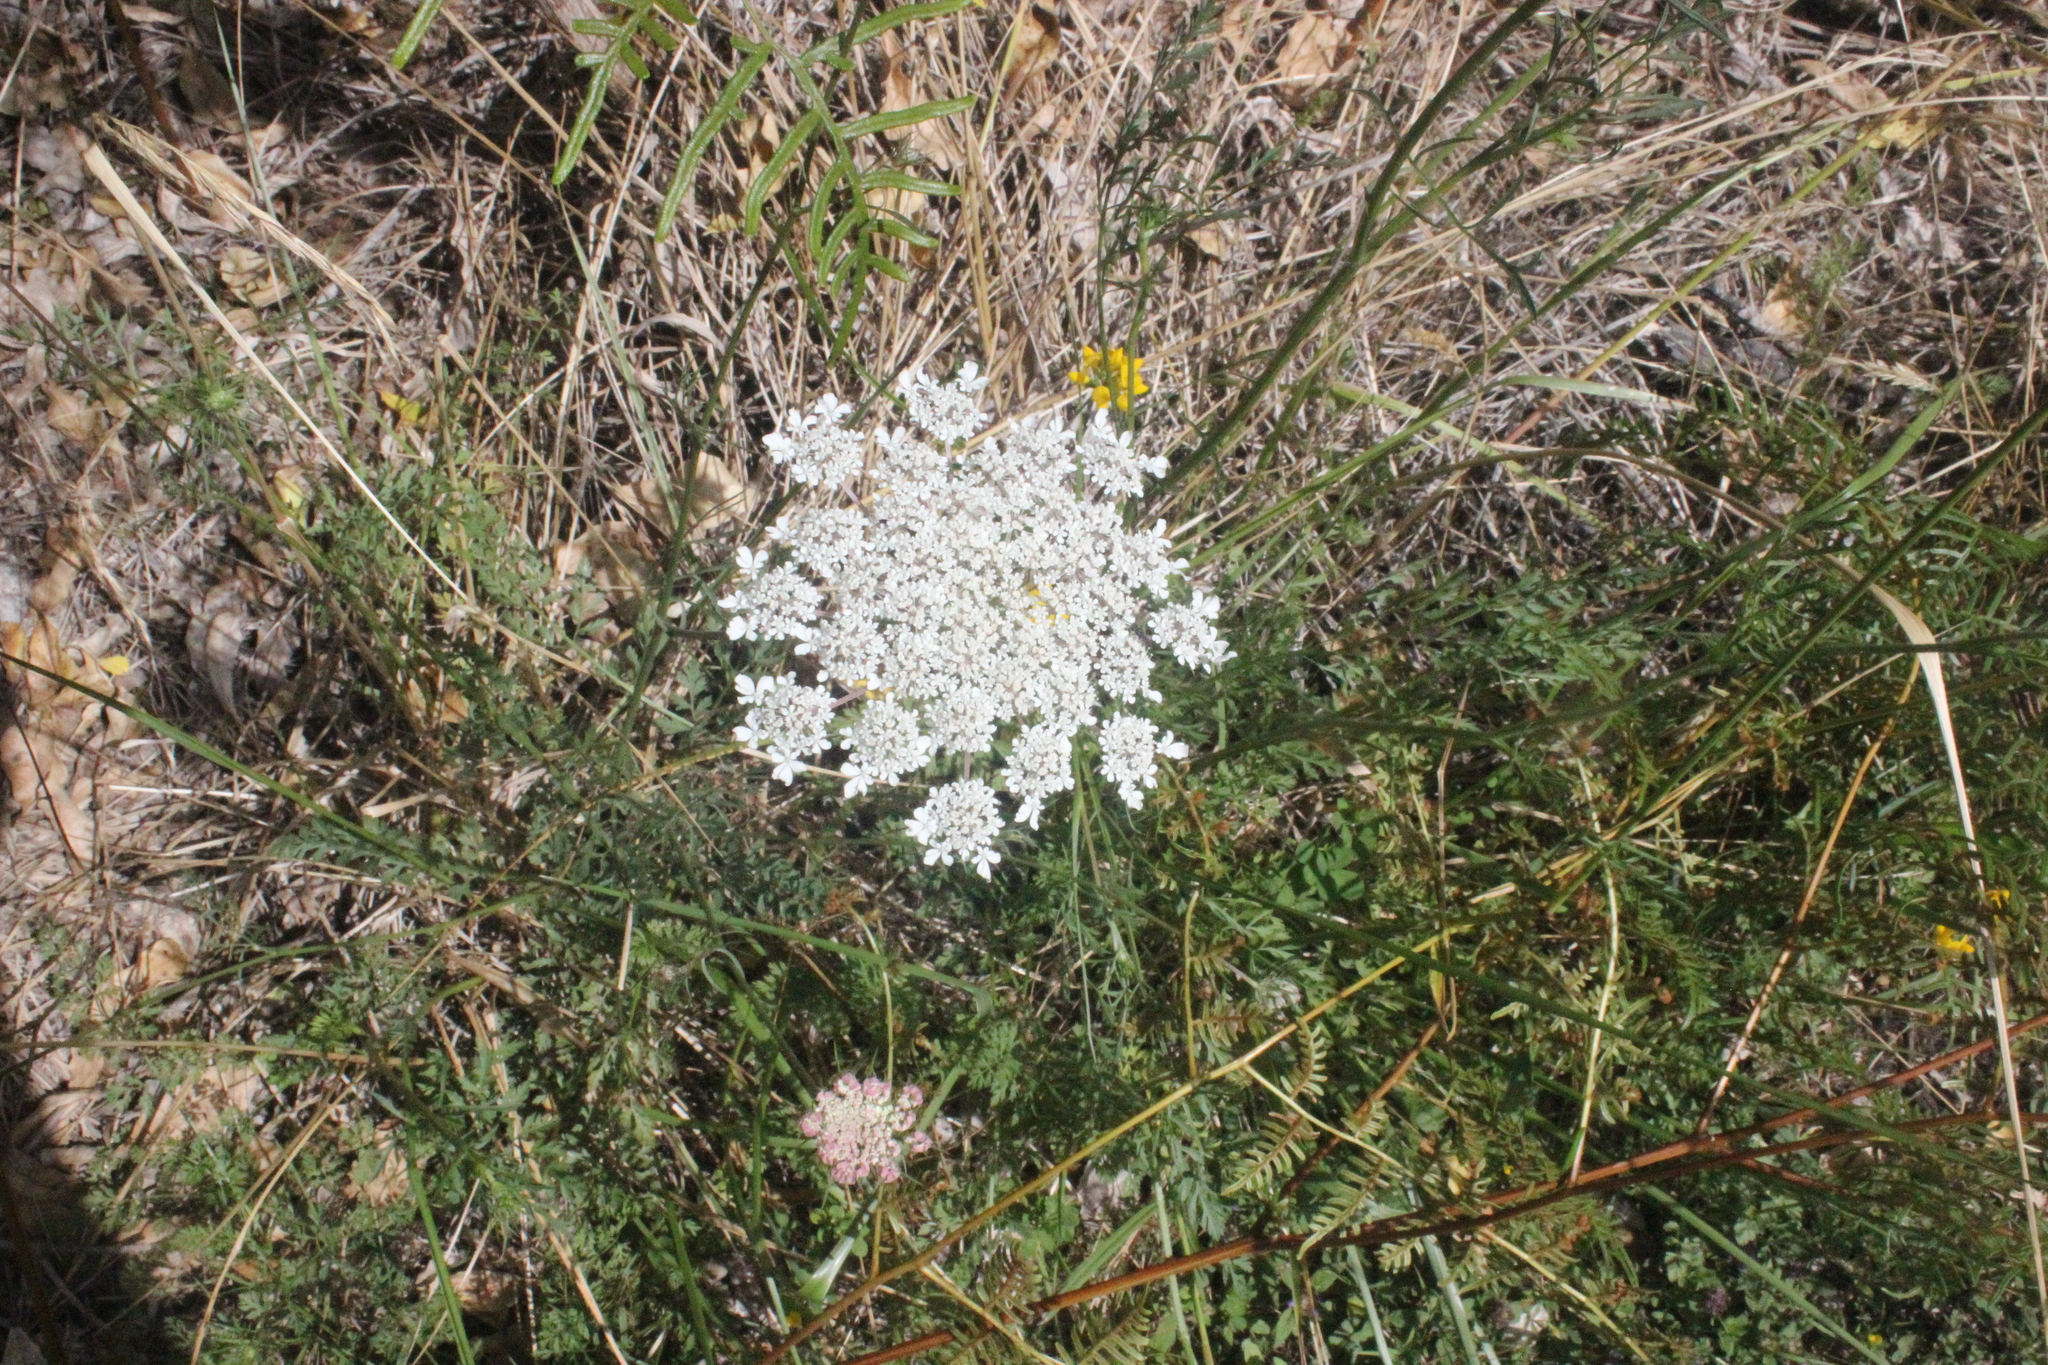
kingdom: Plantae
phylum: Tracheophyta
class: Magnoliopsida
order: Apiales
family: Apiaceae
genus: Daucus
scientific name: Daucus carota
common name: Wild carrot
